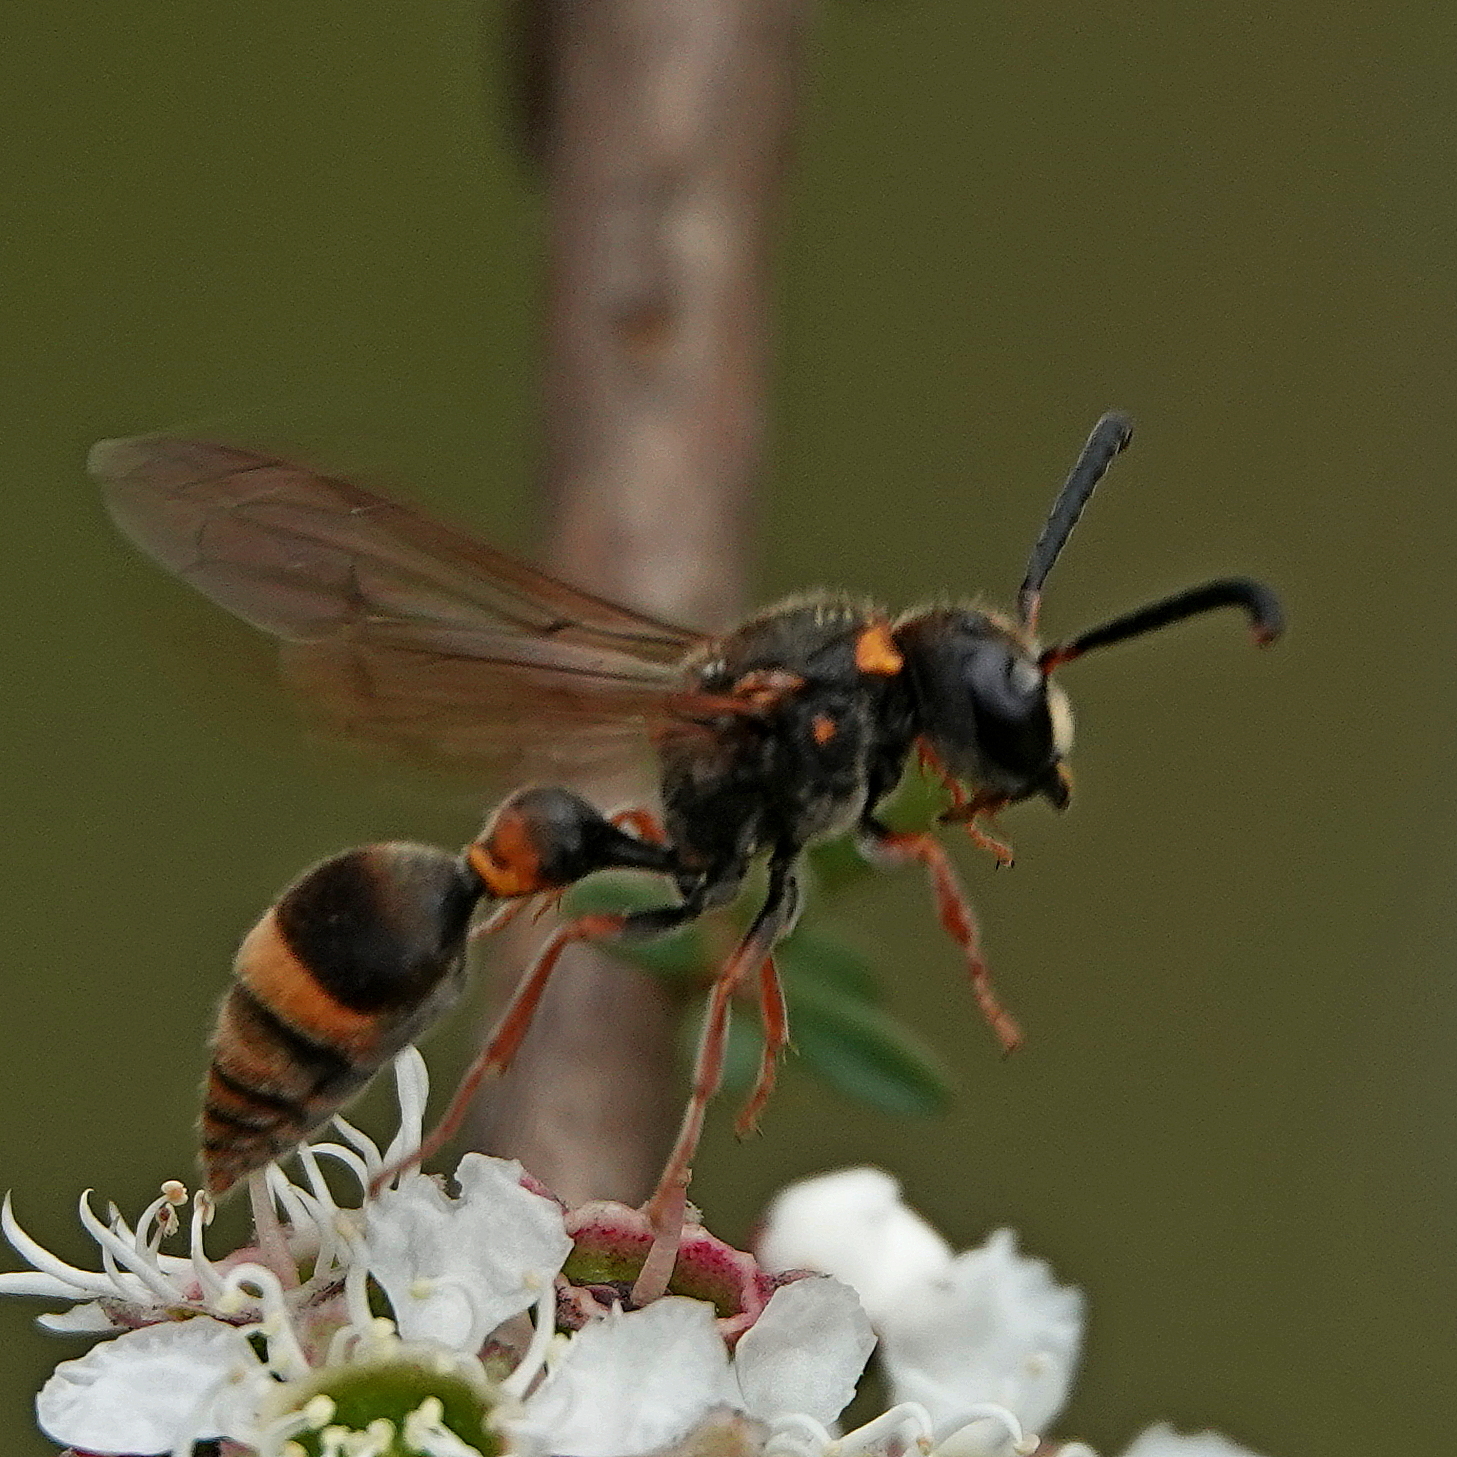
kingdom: Animalia
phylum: Arthropoda
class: Insecta
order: Hymenoptera
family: Eumenidae
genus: Deuterodiscoelius
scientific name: Deuterodiscoelius pseudospinosus
